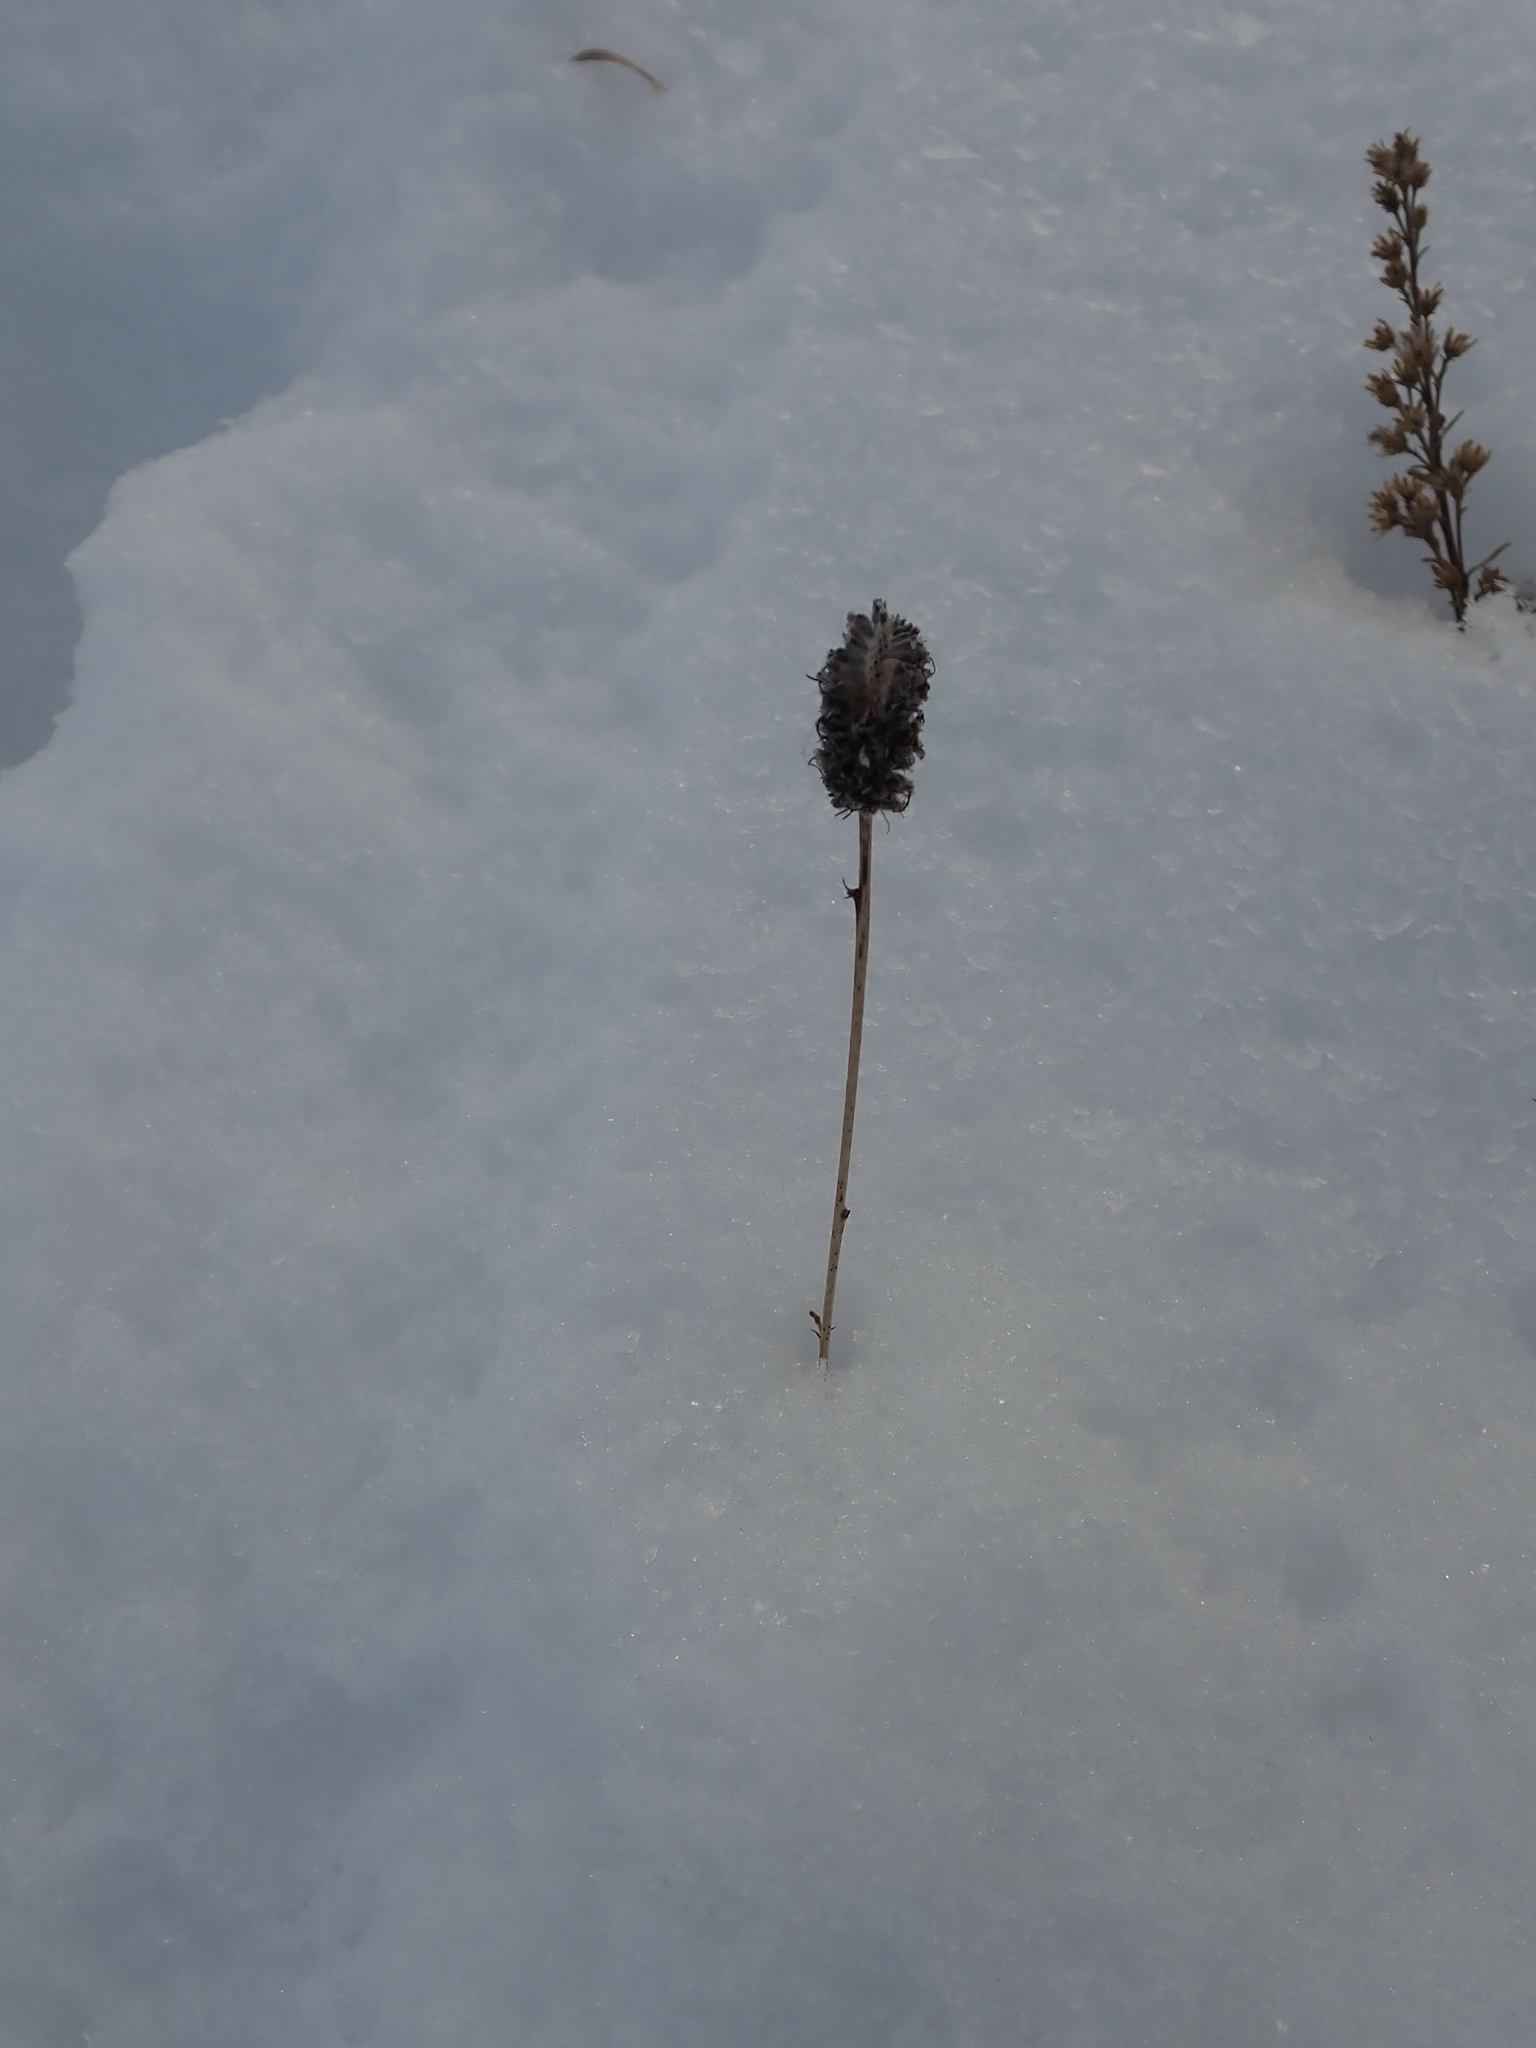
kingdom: Plantae
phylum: Tracheophyta
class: Magnoliopsida
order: Fabales
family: Fabaceae
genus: Dalea
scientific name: Dalea purpurea
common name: Purple prairie-clover
